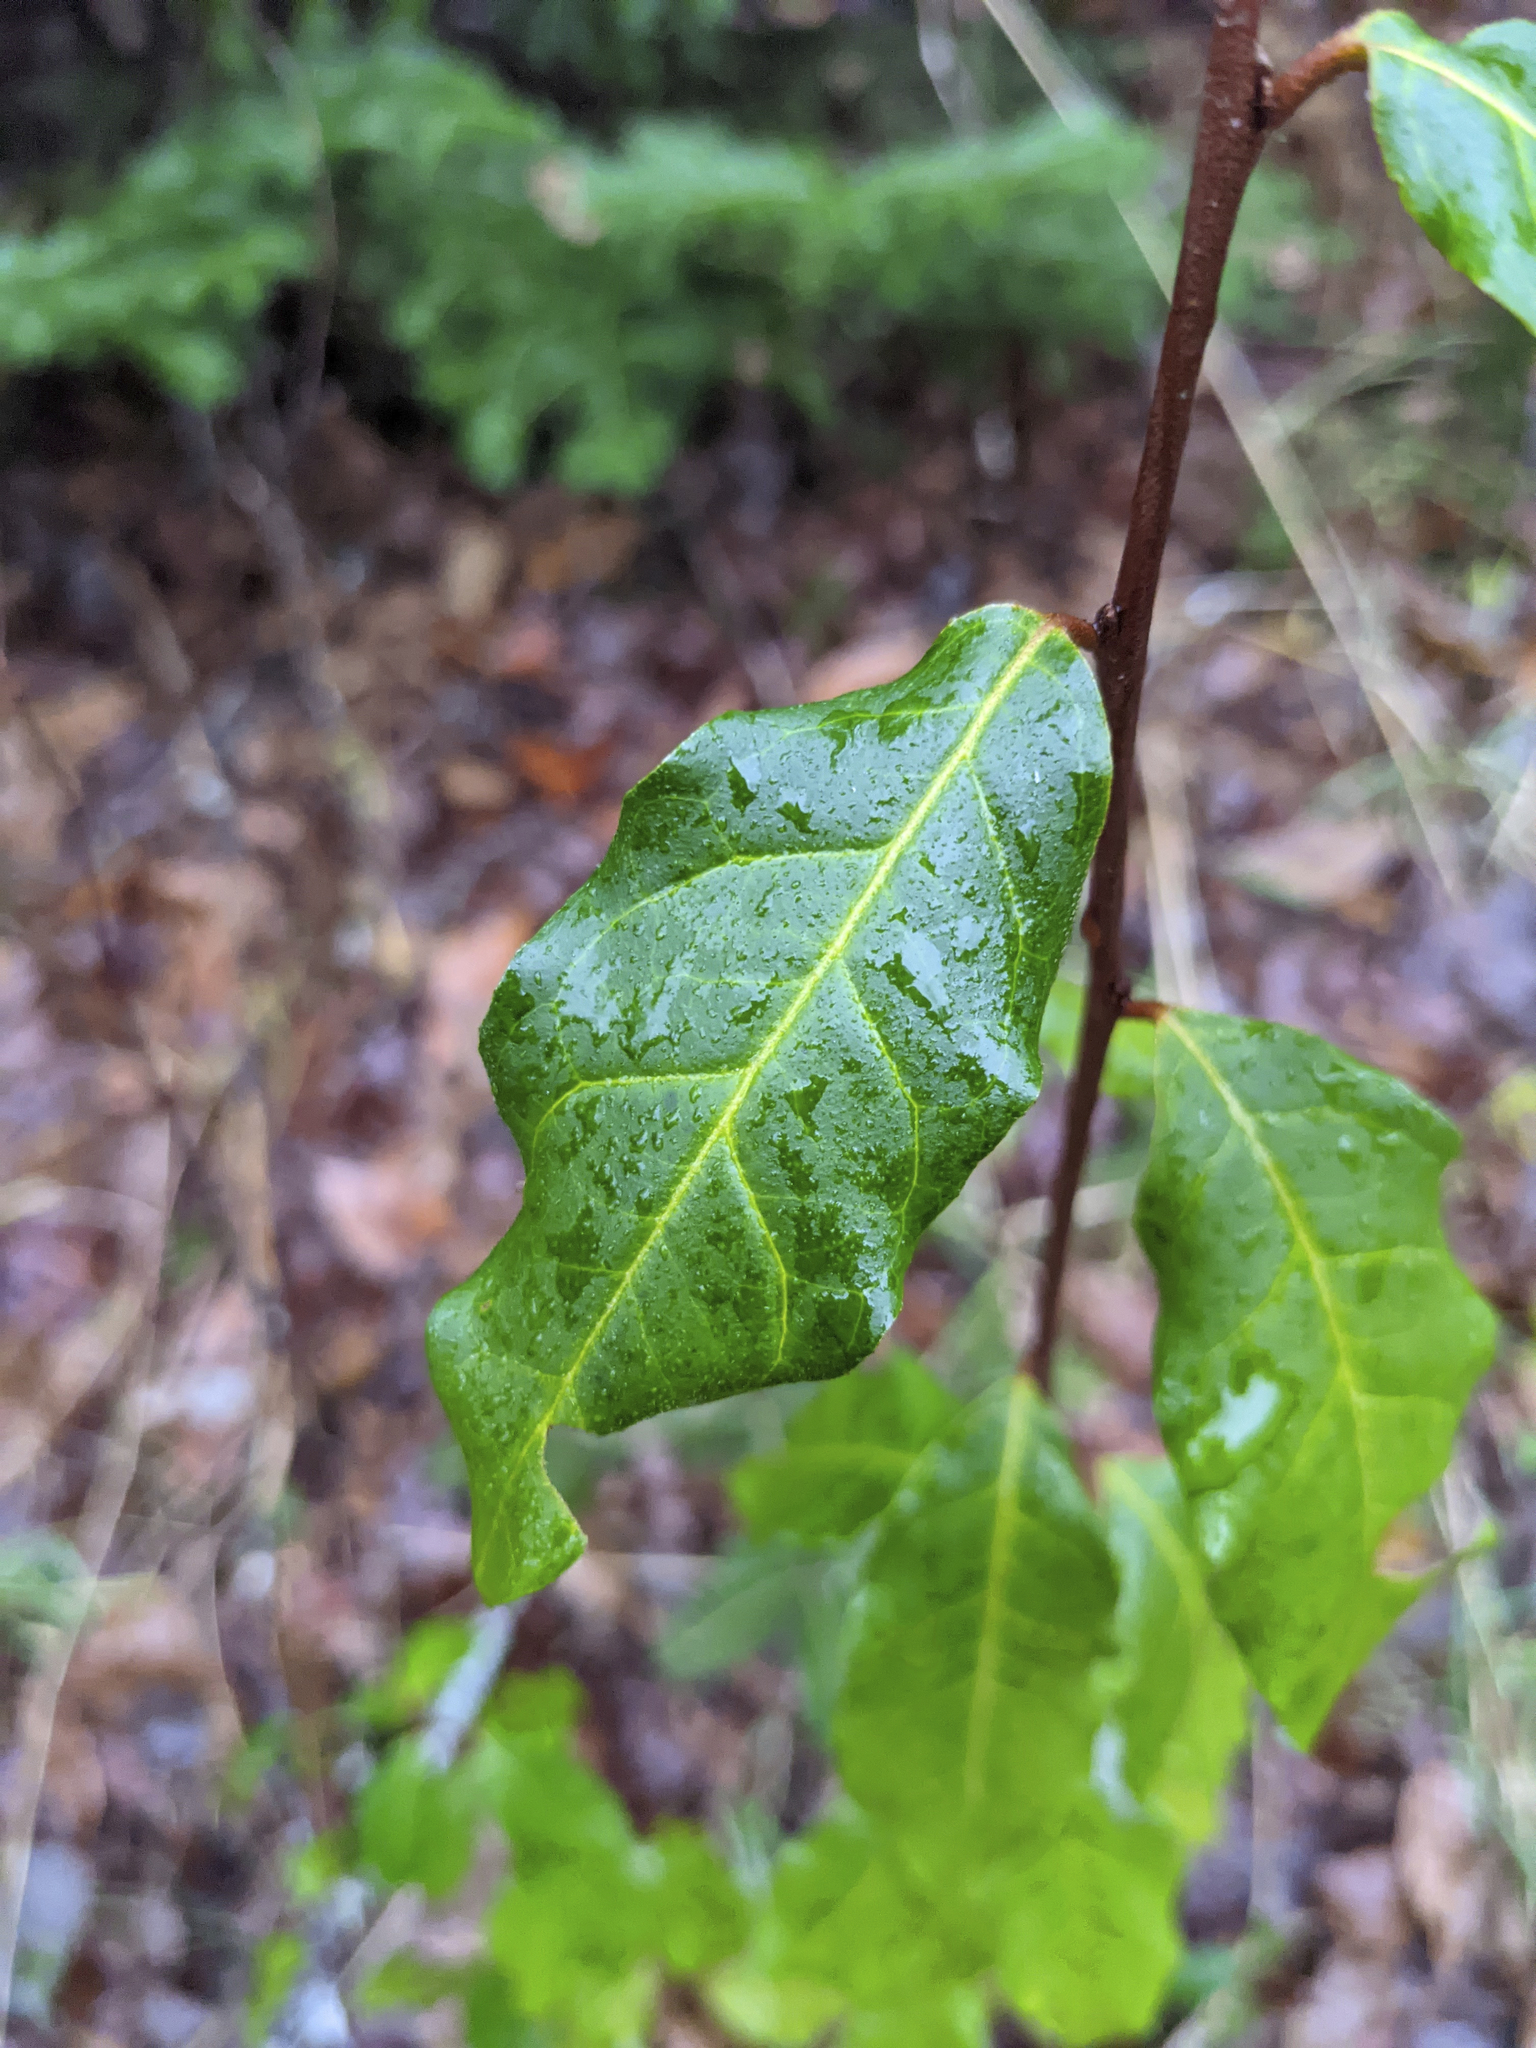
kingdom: Plantae
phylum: Tracheophyta
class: Magnoliopsida
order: Rosales
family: Elaeagnaceae
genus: Elaeagnus
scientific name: Elaeagnus umbellata
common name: Autumn olive
